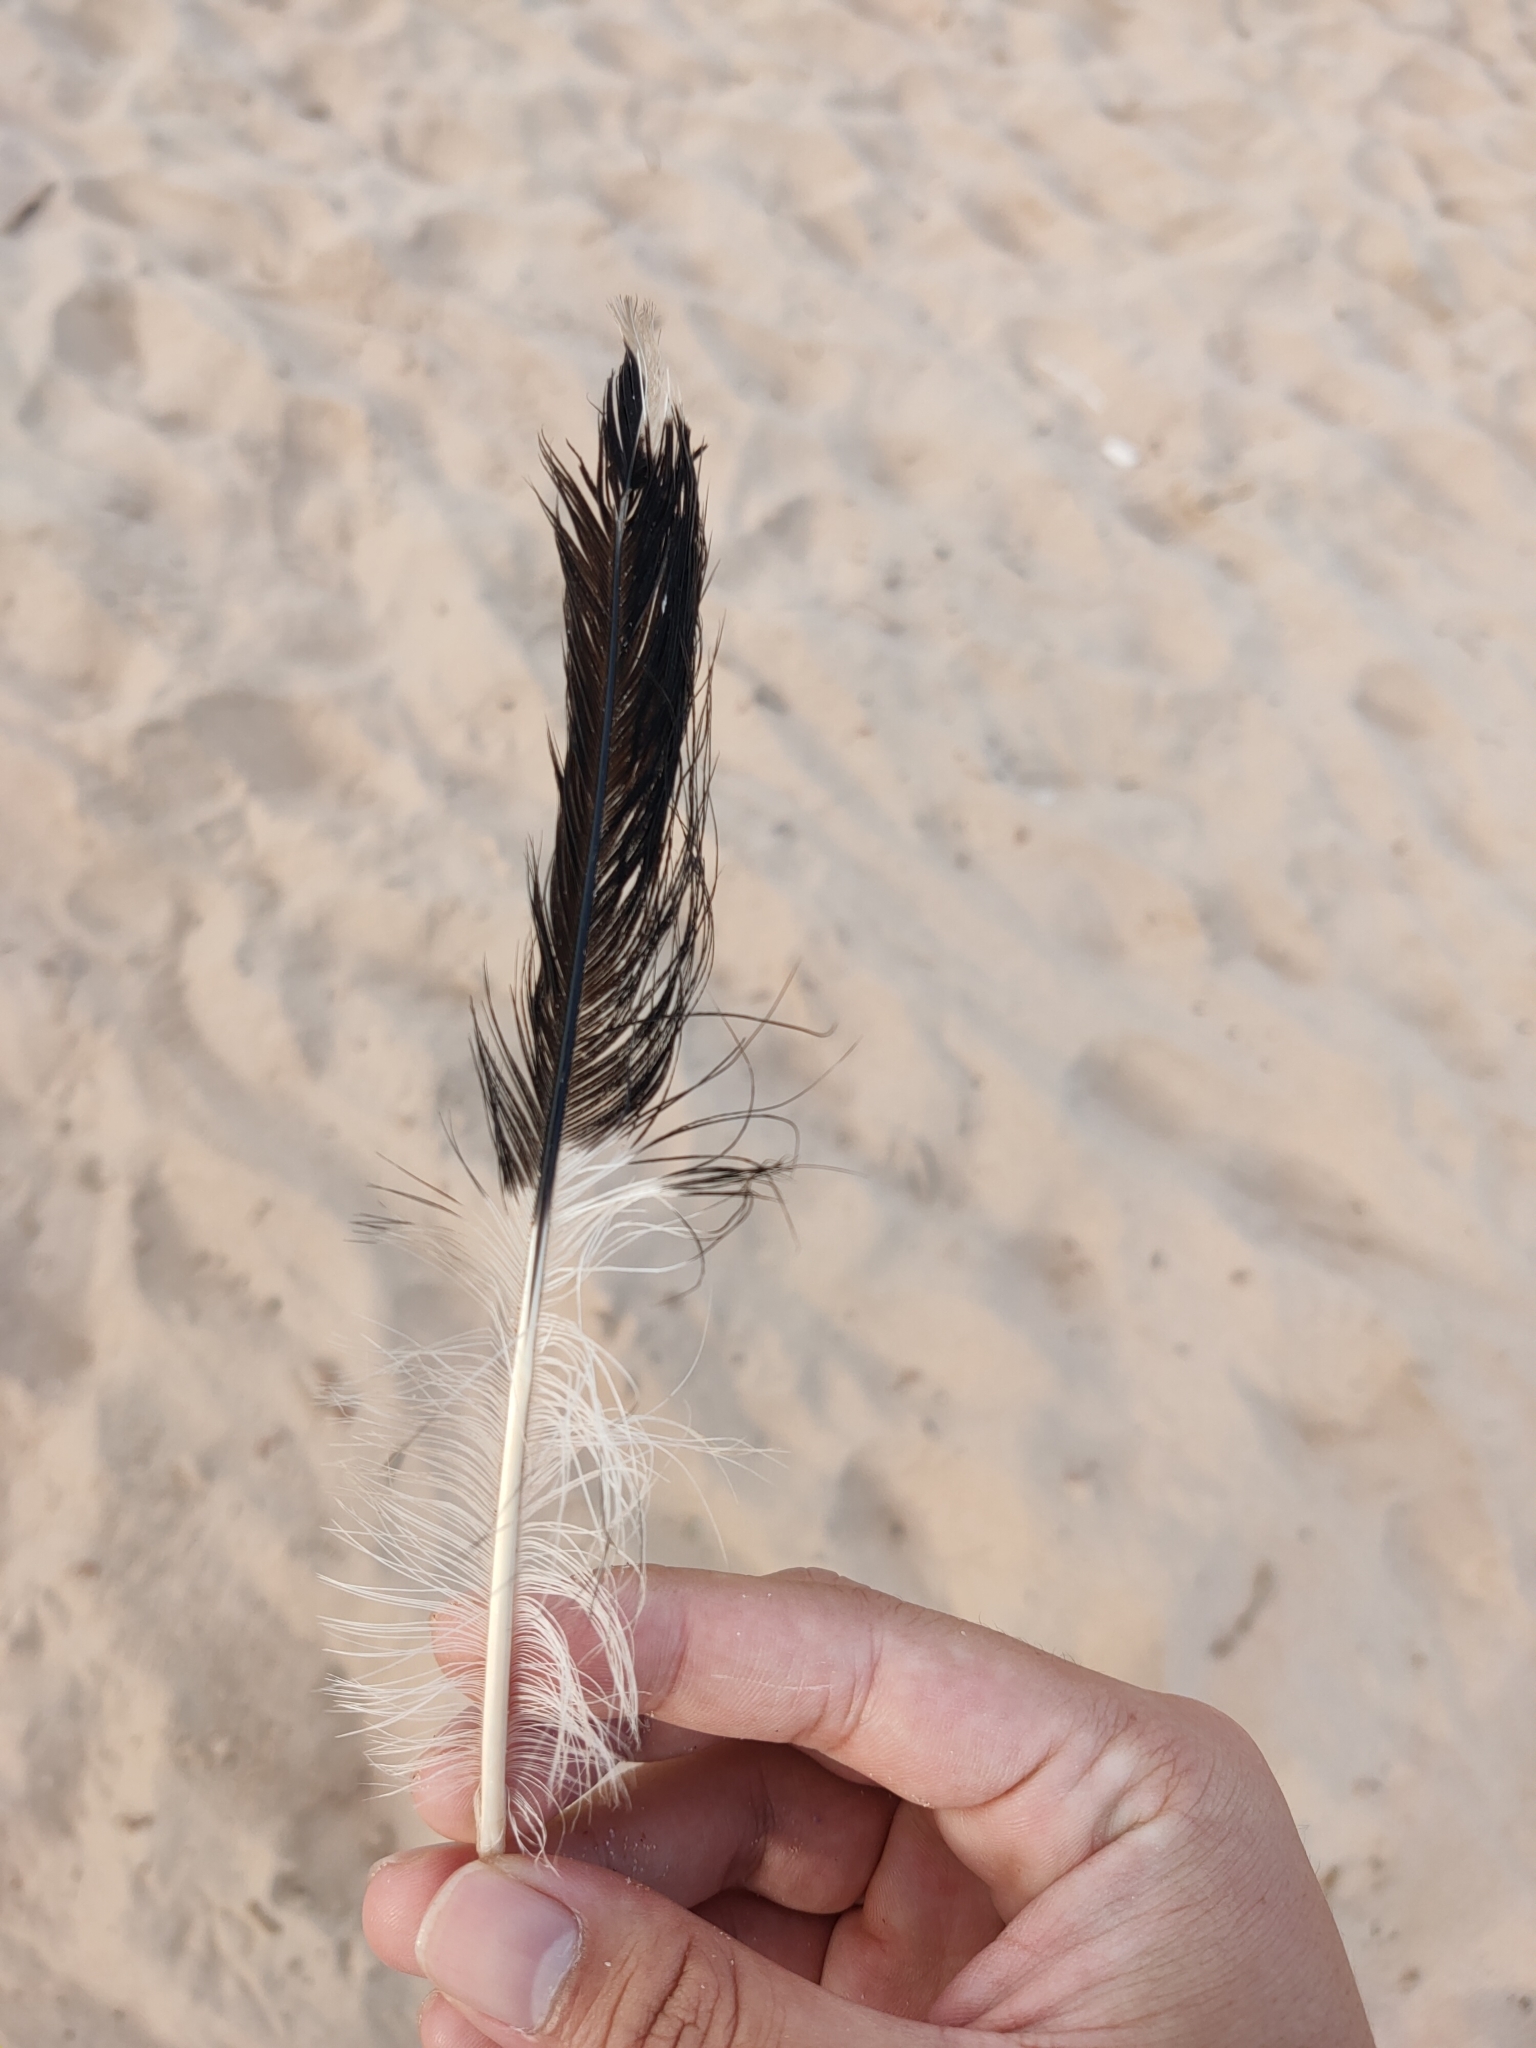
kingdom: Animalia
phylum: Chordata
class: Aves
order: Passeriformes
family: Cracticidae
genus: Strepera
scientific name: Strepera graculina
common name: Pied currawong
